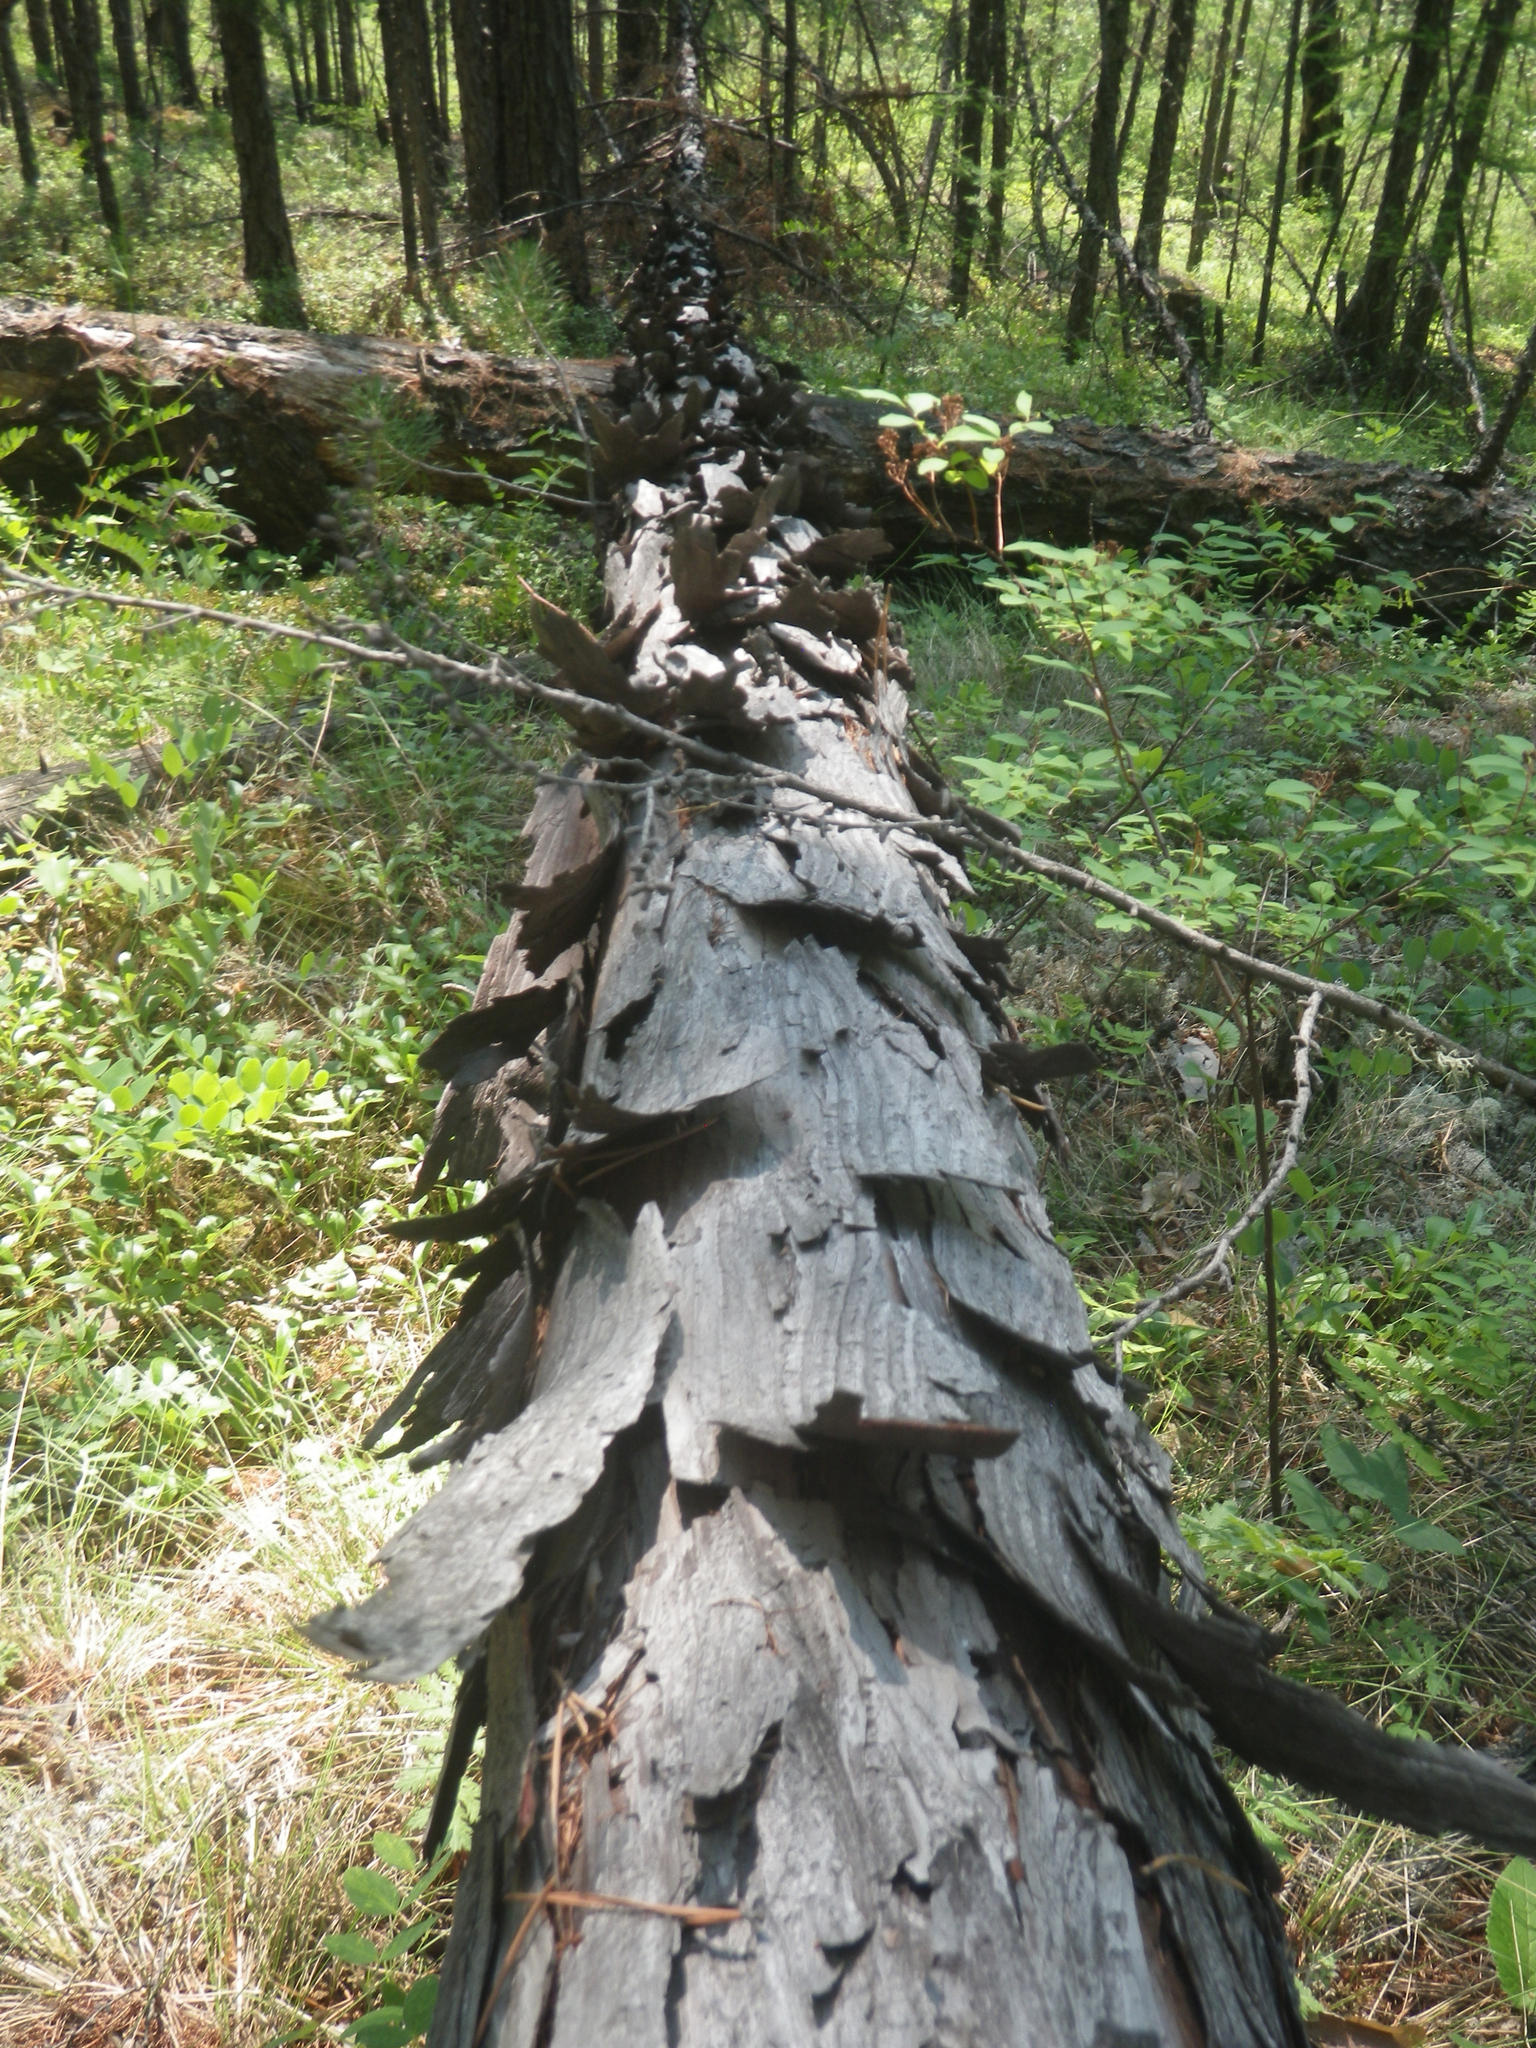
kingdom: Plantae
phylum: Tracheophyta
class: Pinopsida
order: Pinales
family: Pinaceae
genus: Larix
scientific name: Larix gmelinii
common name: Dahurian larch
